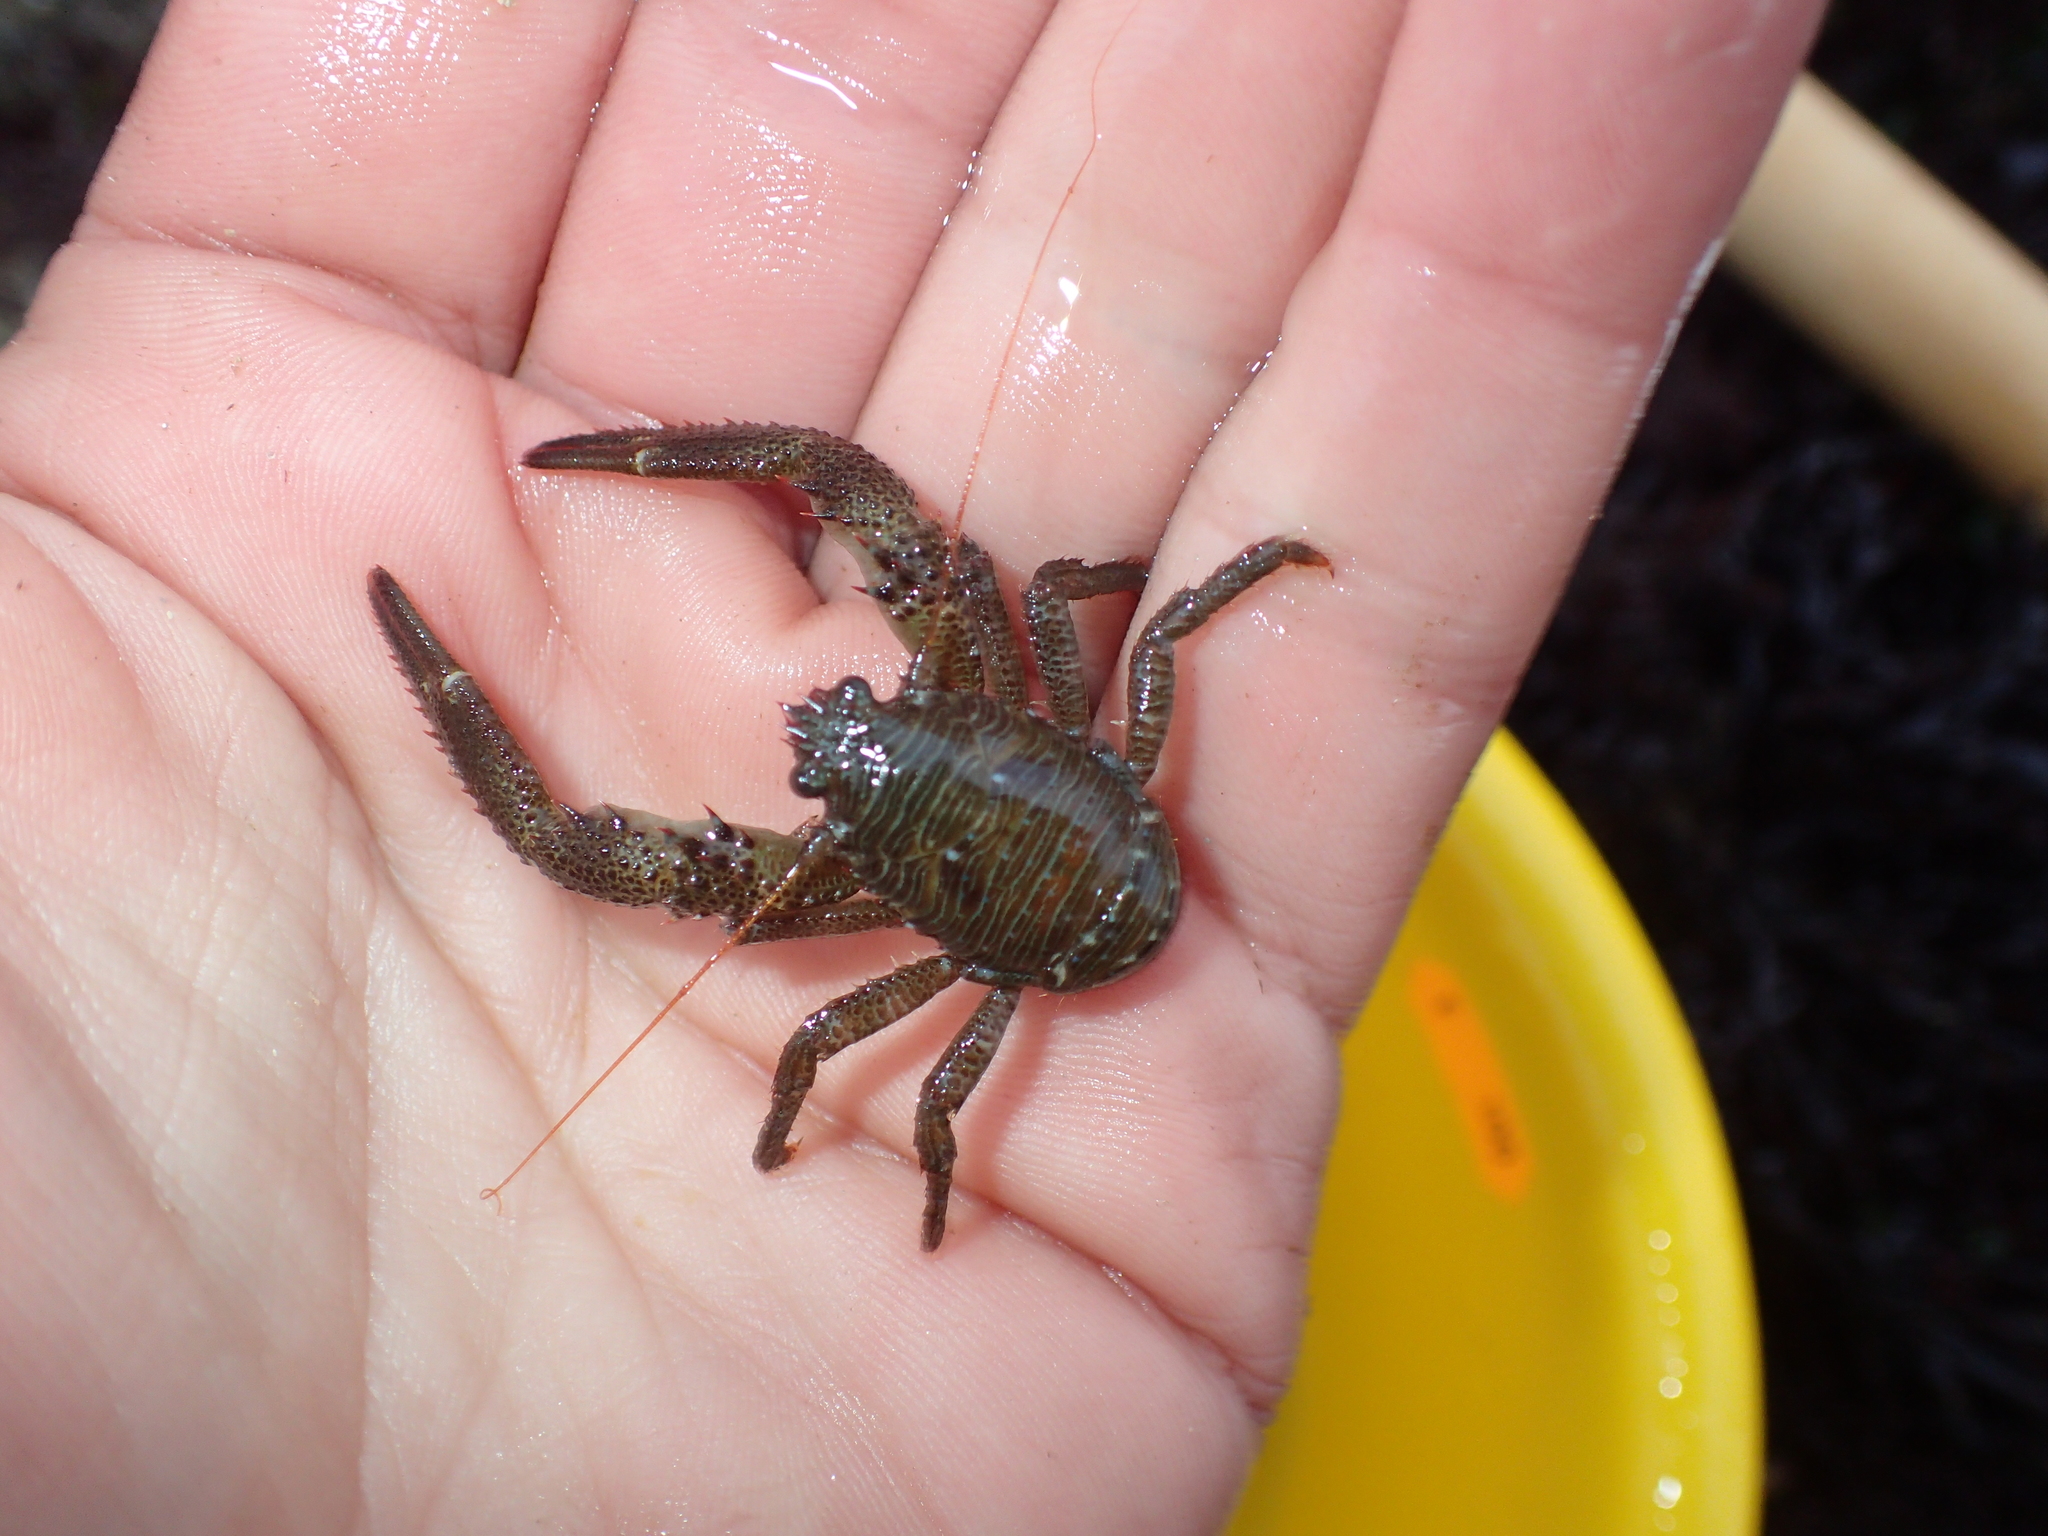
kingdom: Animalia
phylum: Arthropoda
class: Malacostraca
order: Decapoda
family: Galatheidae
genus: Galathea
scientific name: Galathea squamifera
